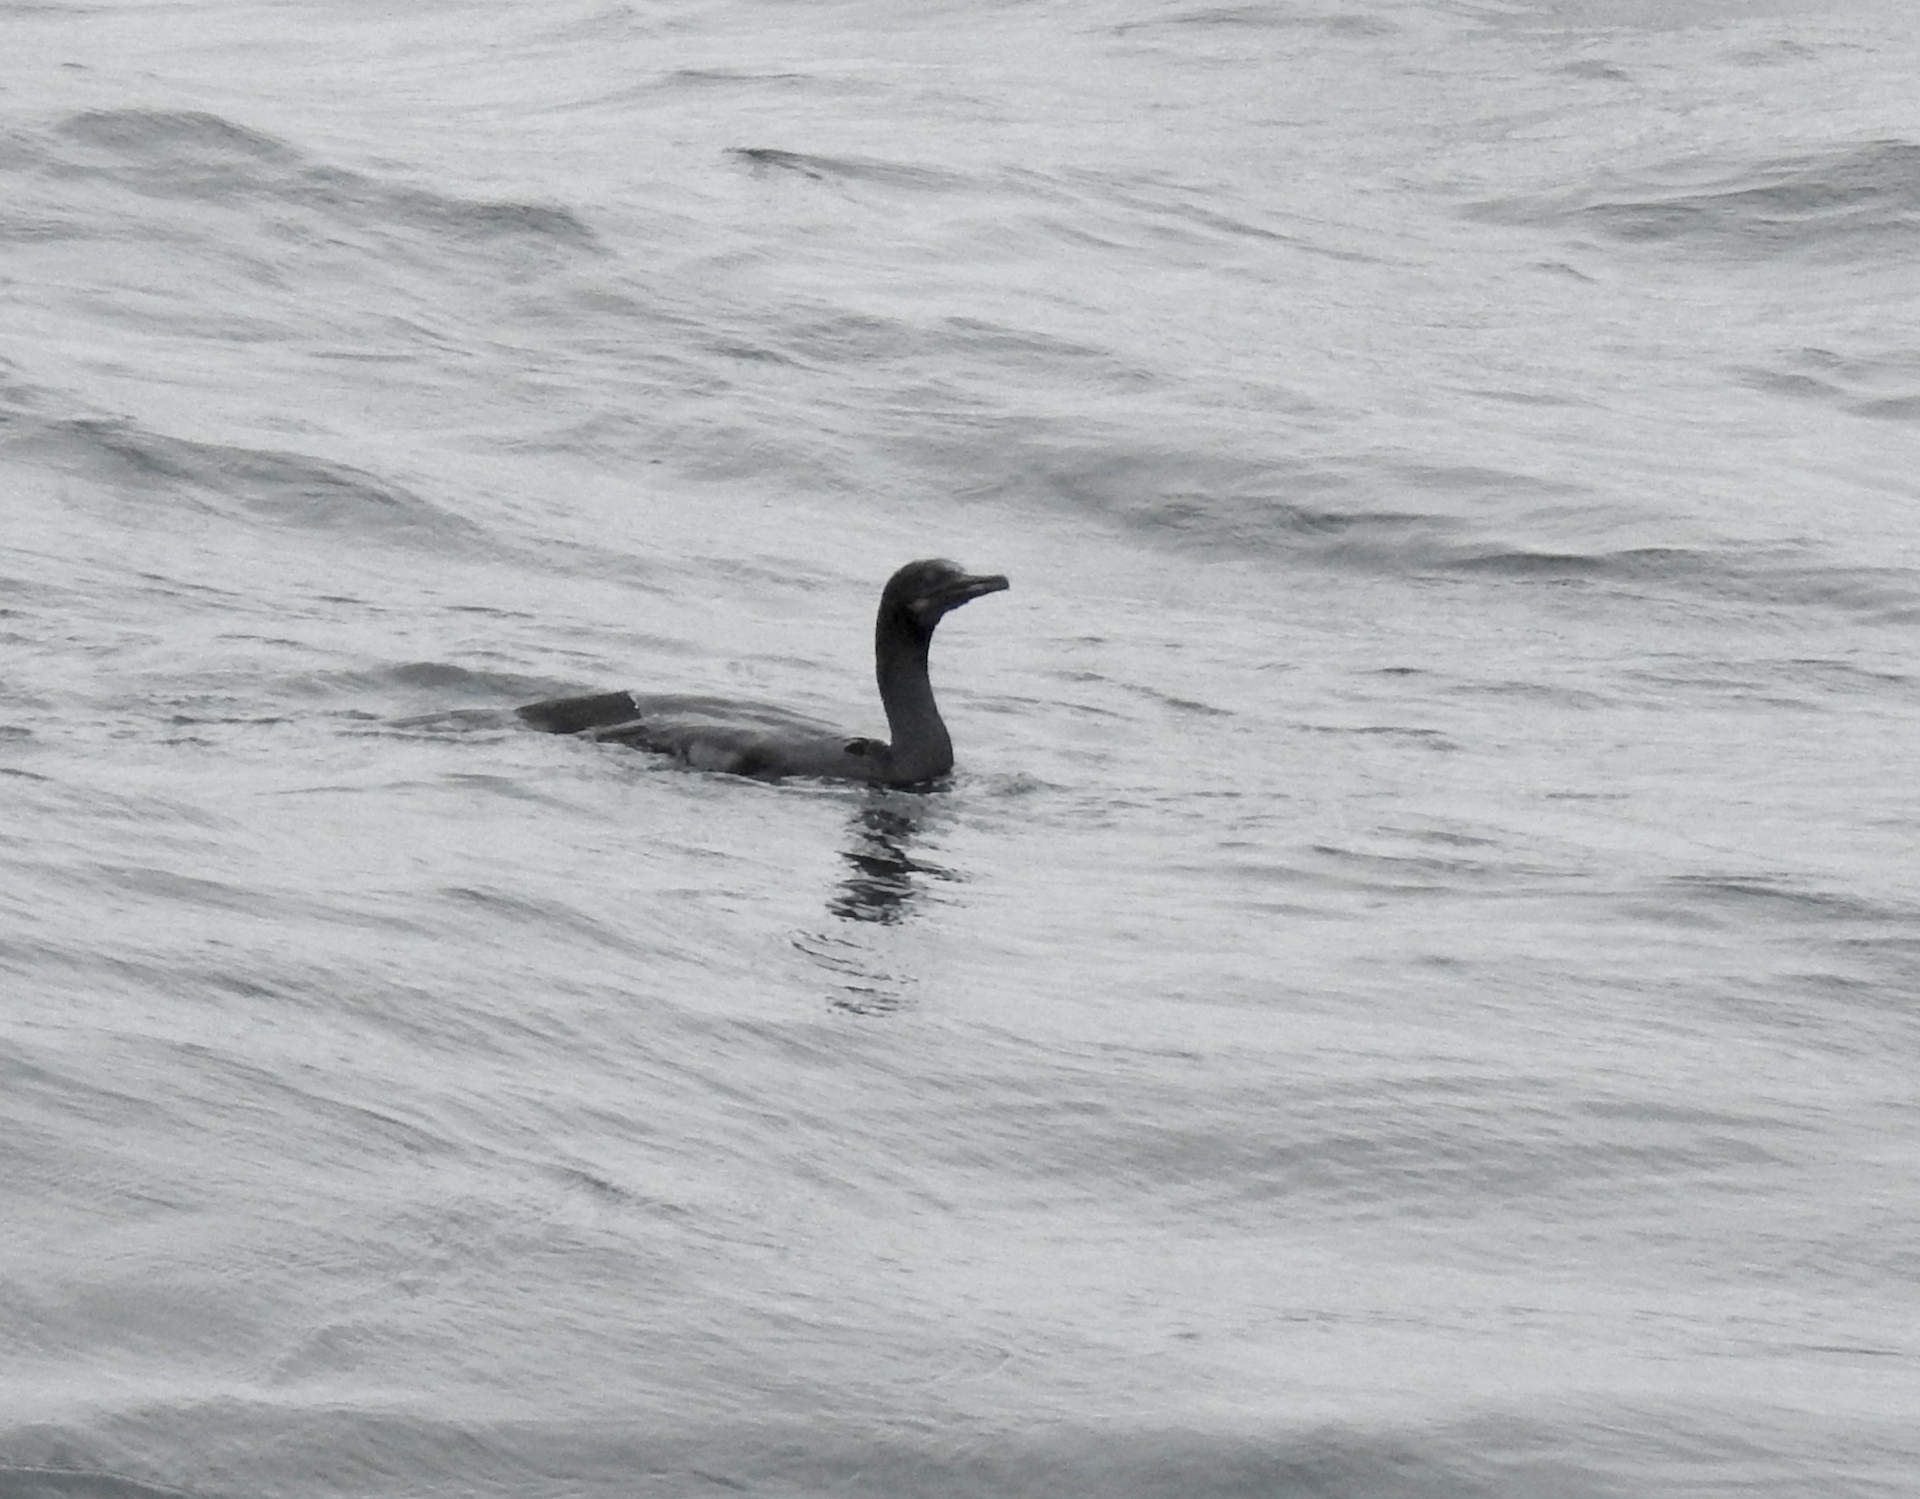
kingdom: Animalia
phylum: Chordata
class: Aves
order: Suliformes
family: Phalacrocoracidae
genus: Urile
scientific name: Urile penicillatus
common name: Brandt's cormorant
